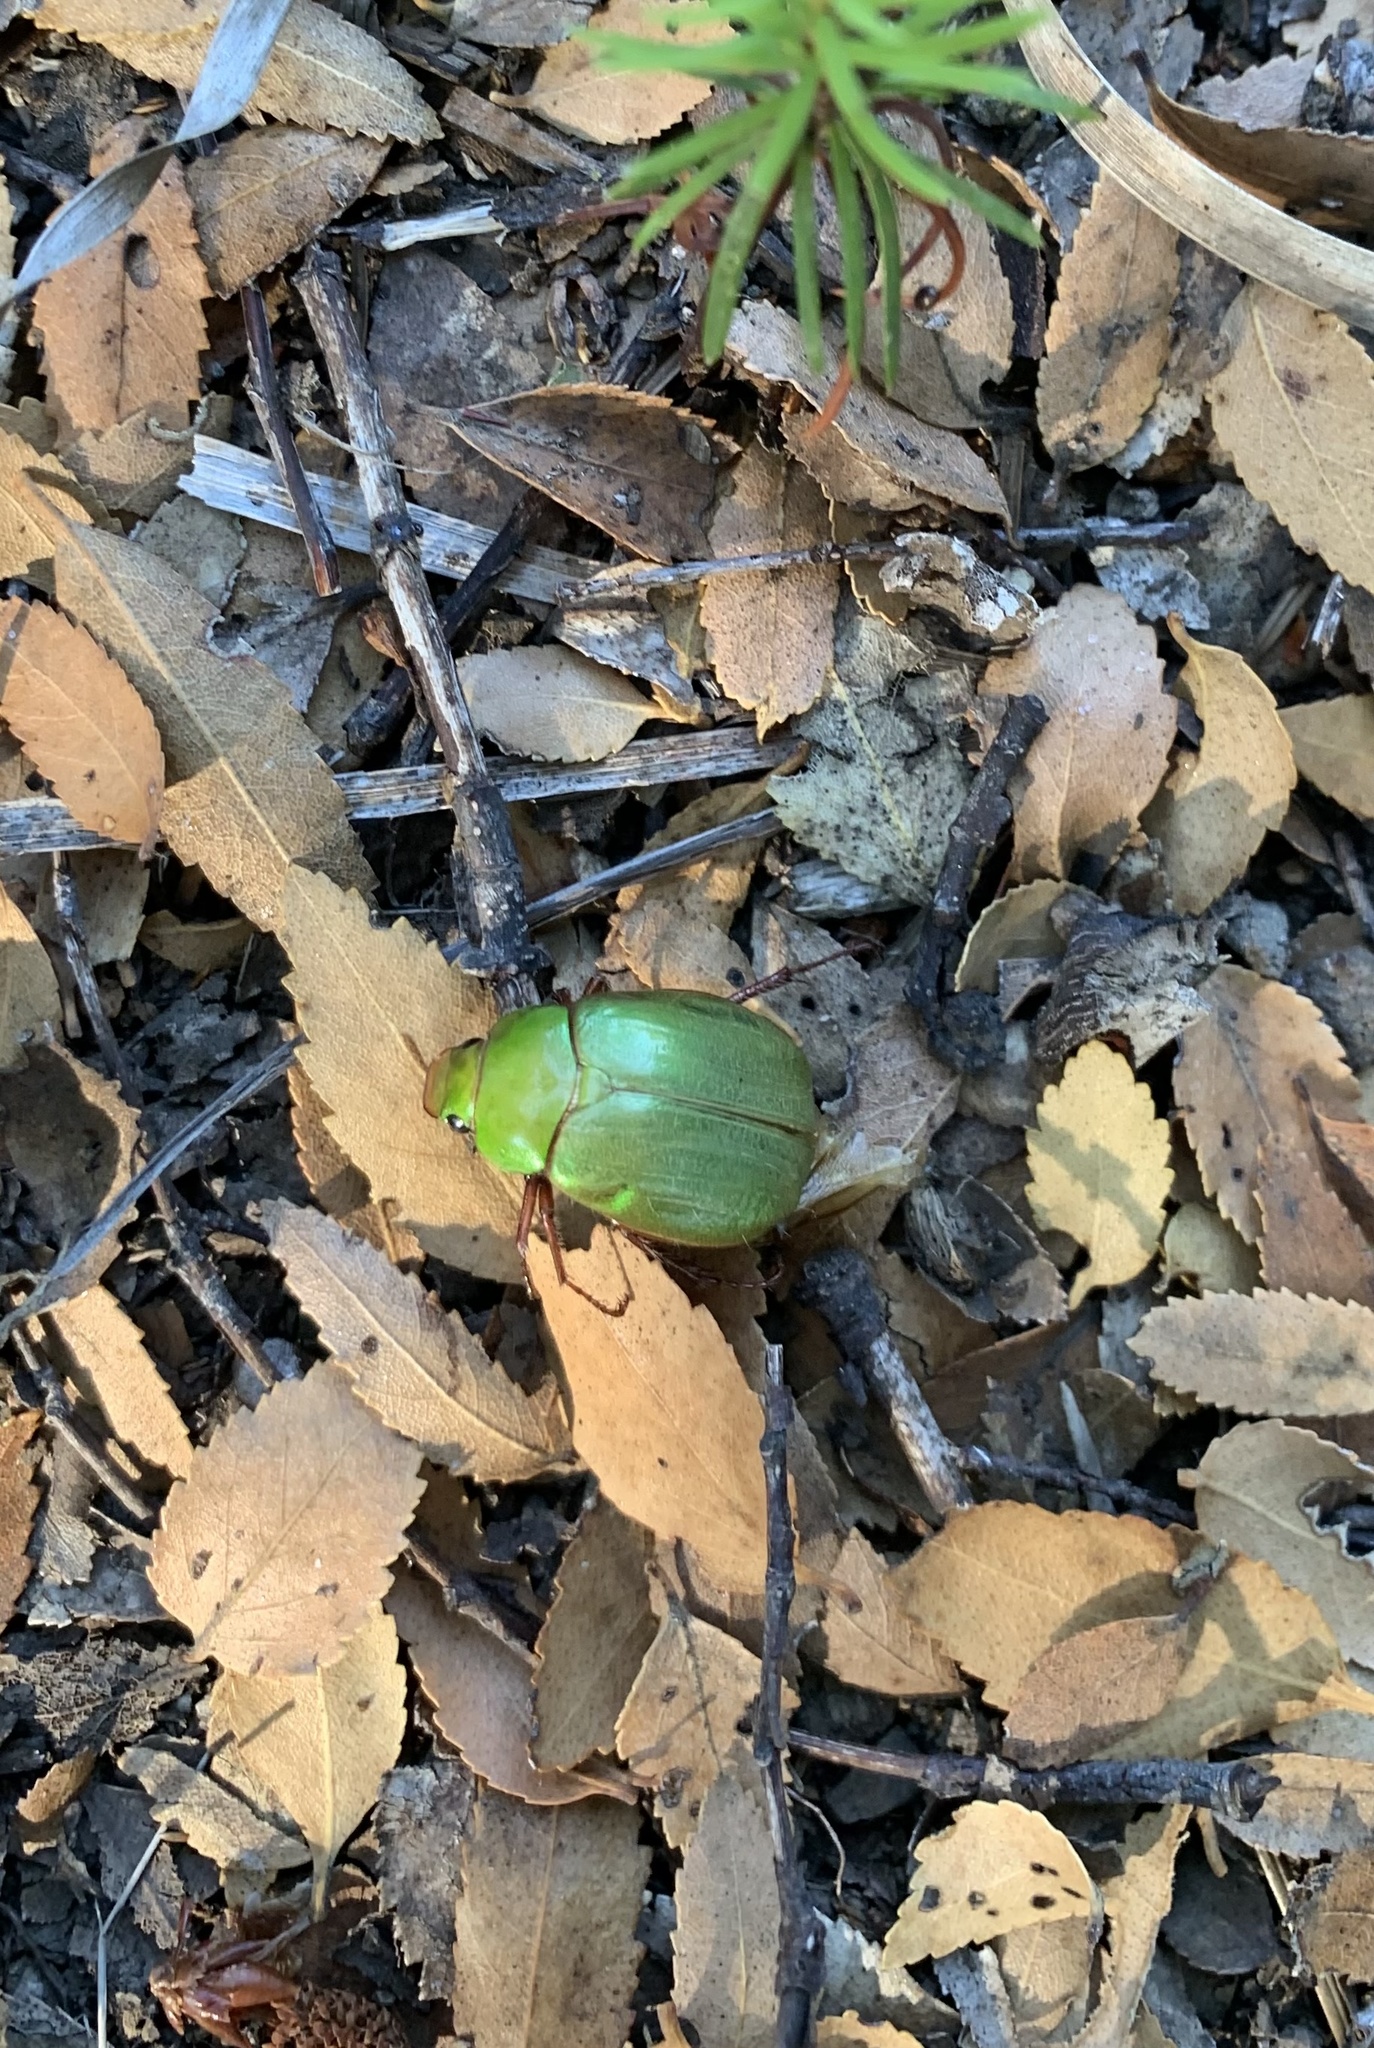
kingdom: Animalia
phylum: Arthropoda
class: Insecta
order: Coleoptera
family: Scarabaeidae
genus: Modialis
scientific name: Modialis prasinella
